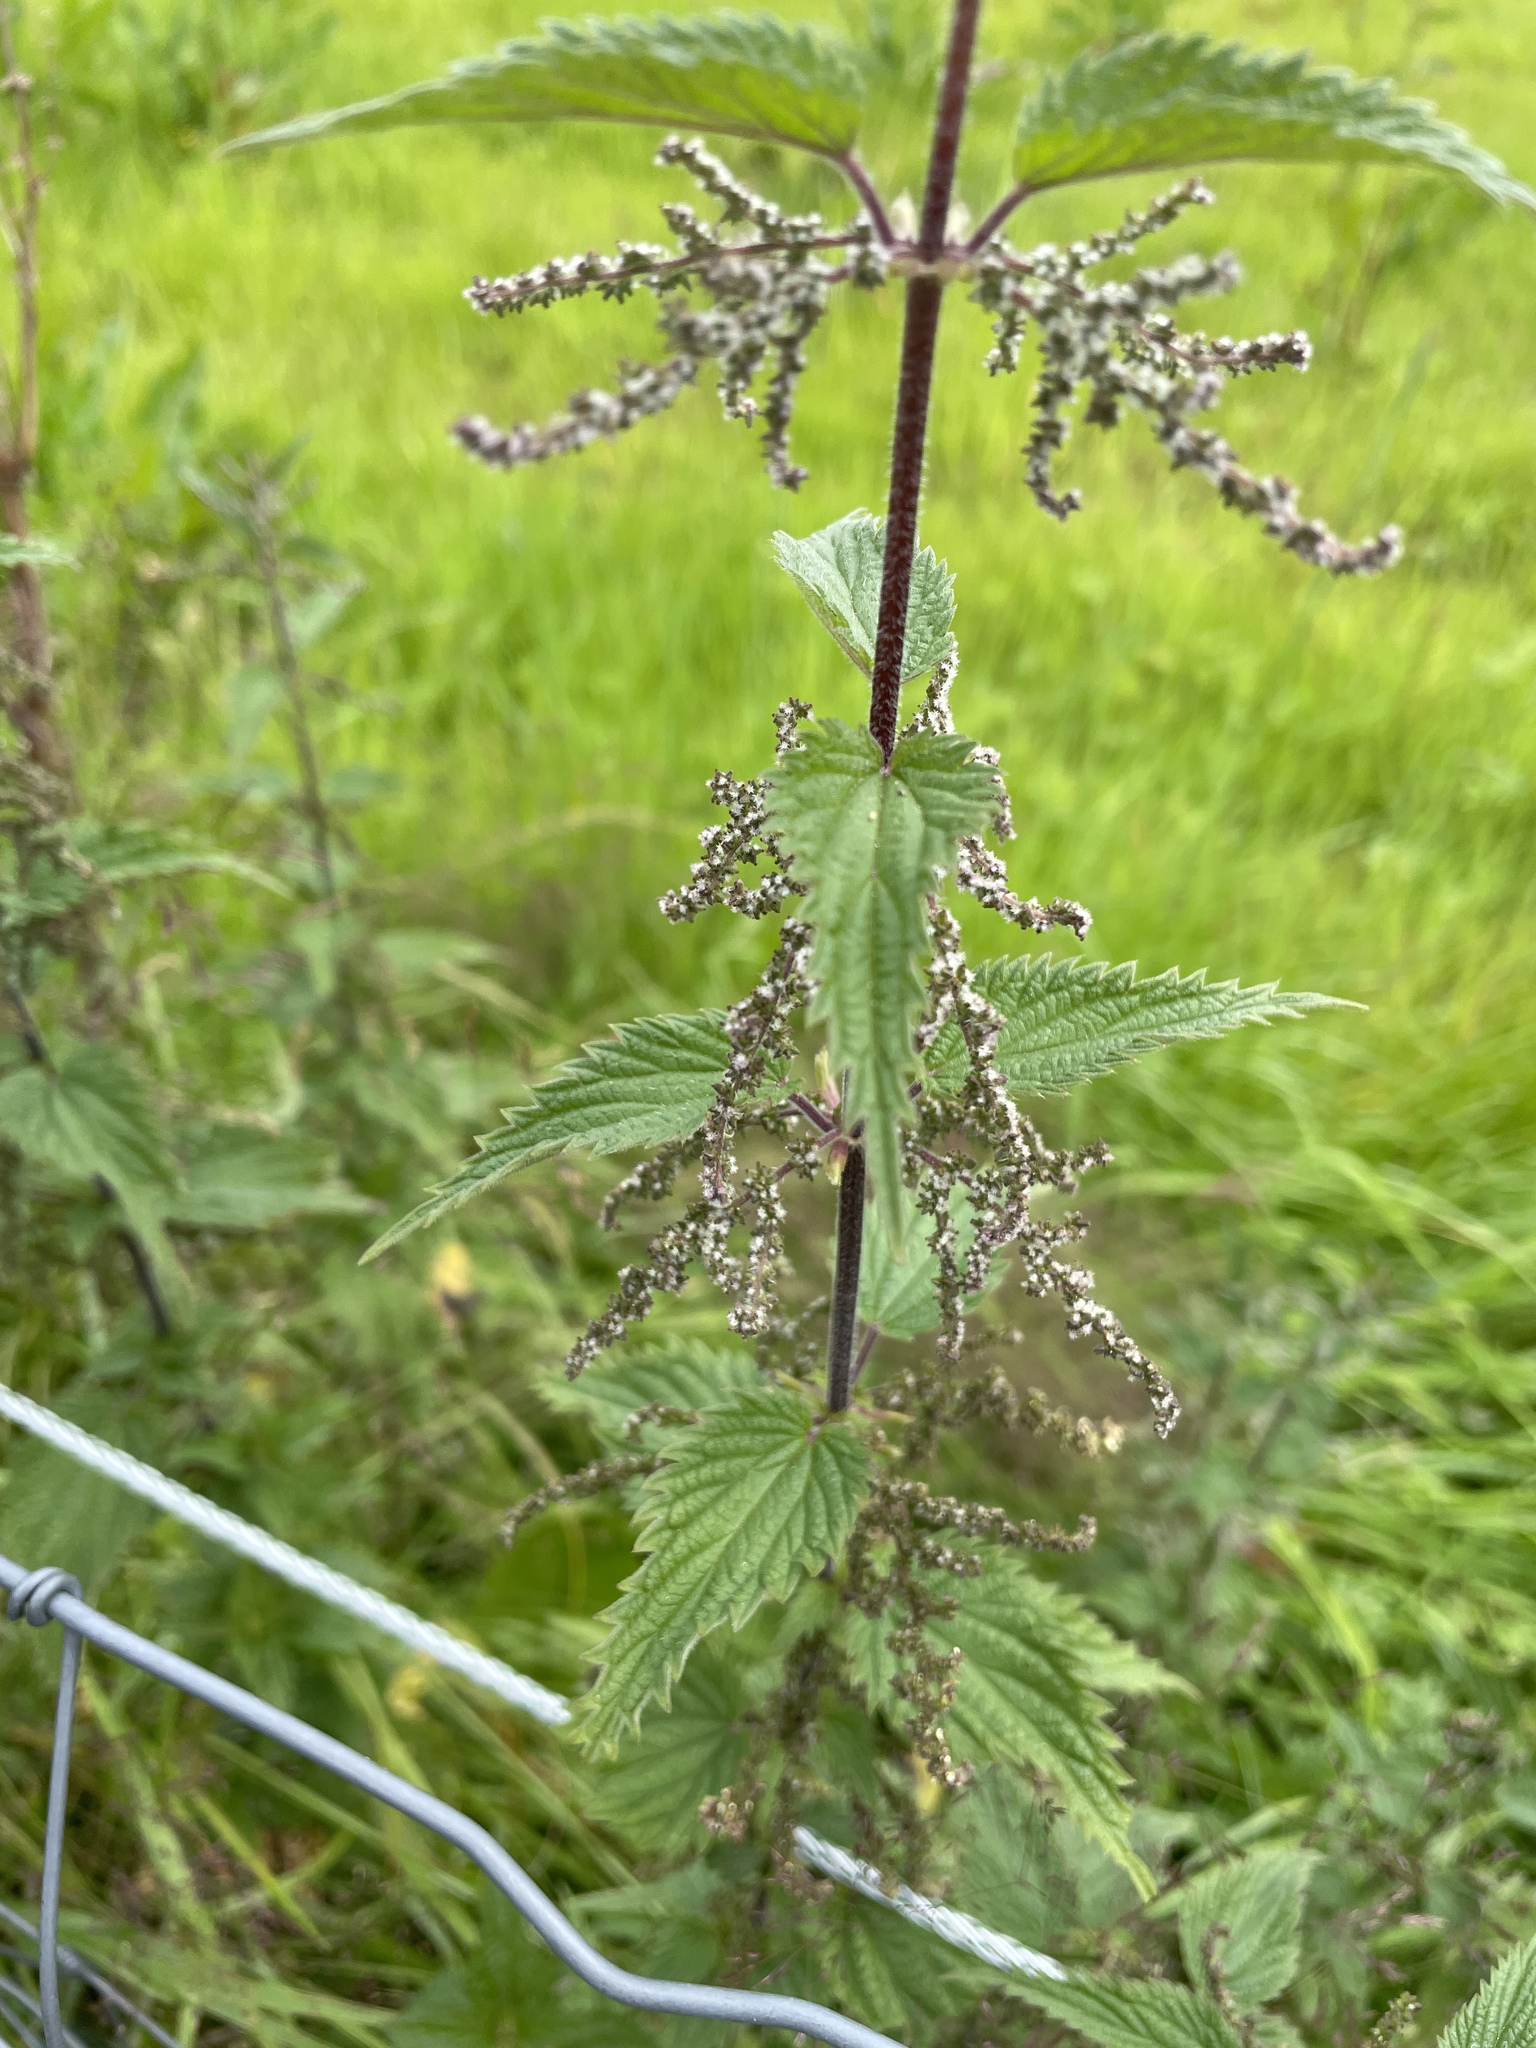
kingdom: Plantae
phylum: Tracheophyta
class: Magnoliopsida
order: Rosales
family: Urticaceae
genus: Urtica
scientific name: Urtica dioica
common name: Common nettle
